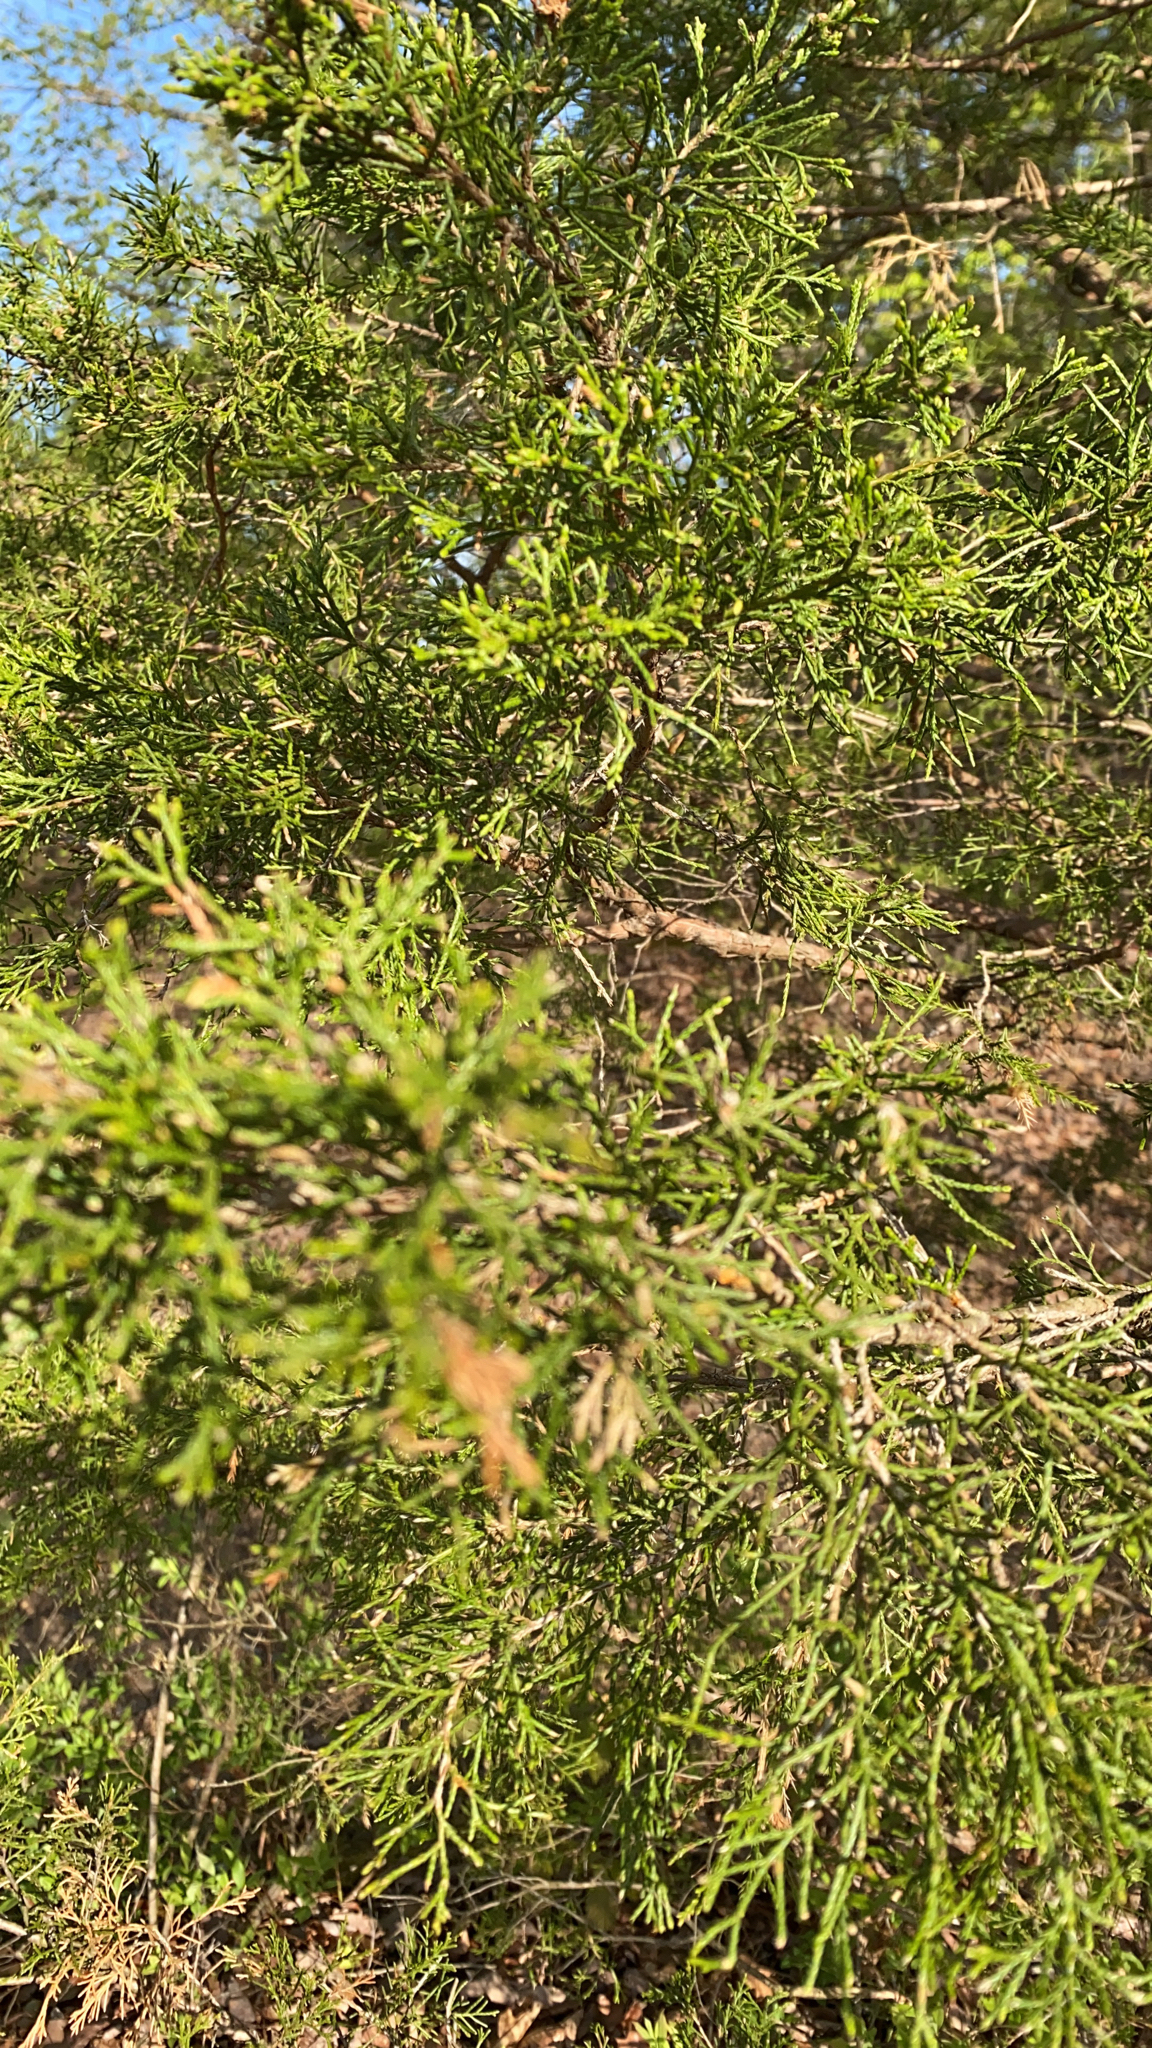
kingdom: Plantae
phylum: Tracheophyta
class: Pinopsida
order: Pinales
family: Cupressaceae
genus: Juniperus
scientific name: Juniperus virginiana
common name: Red juniper
